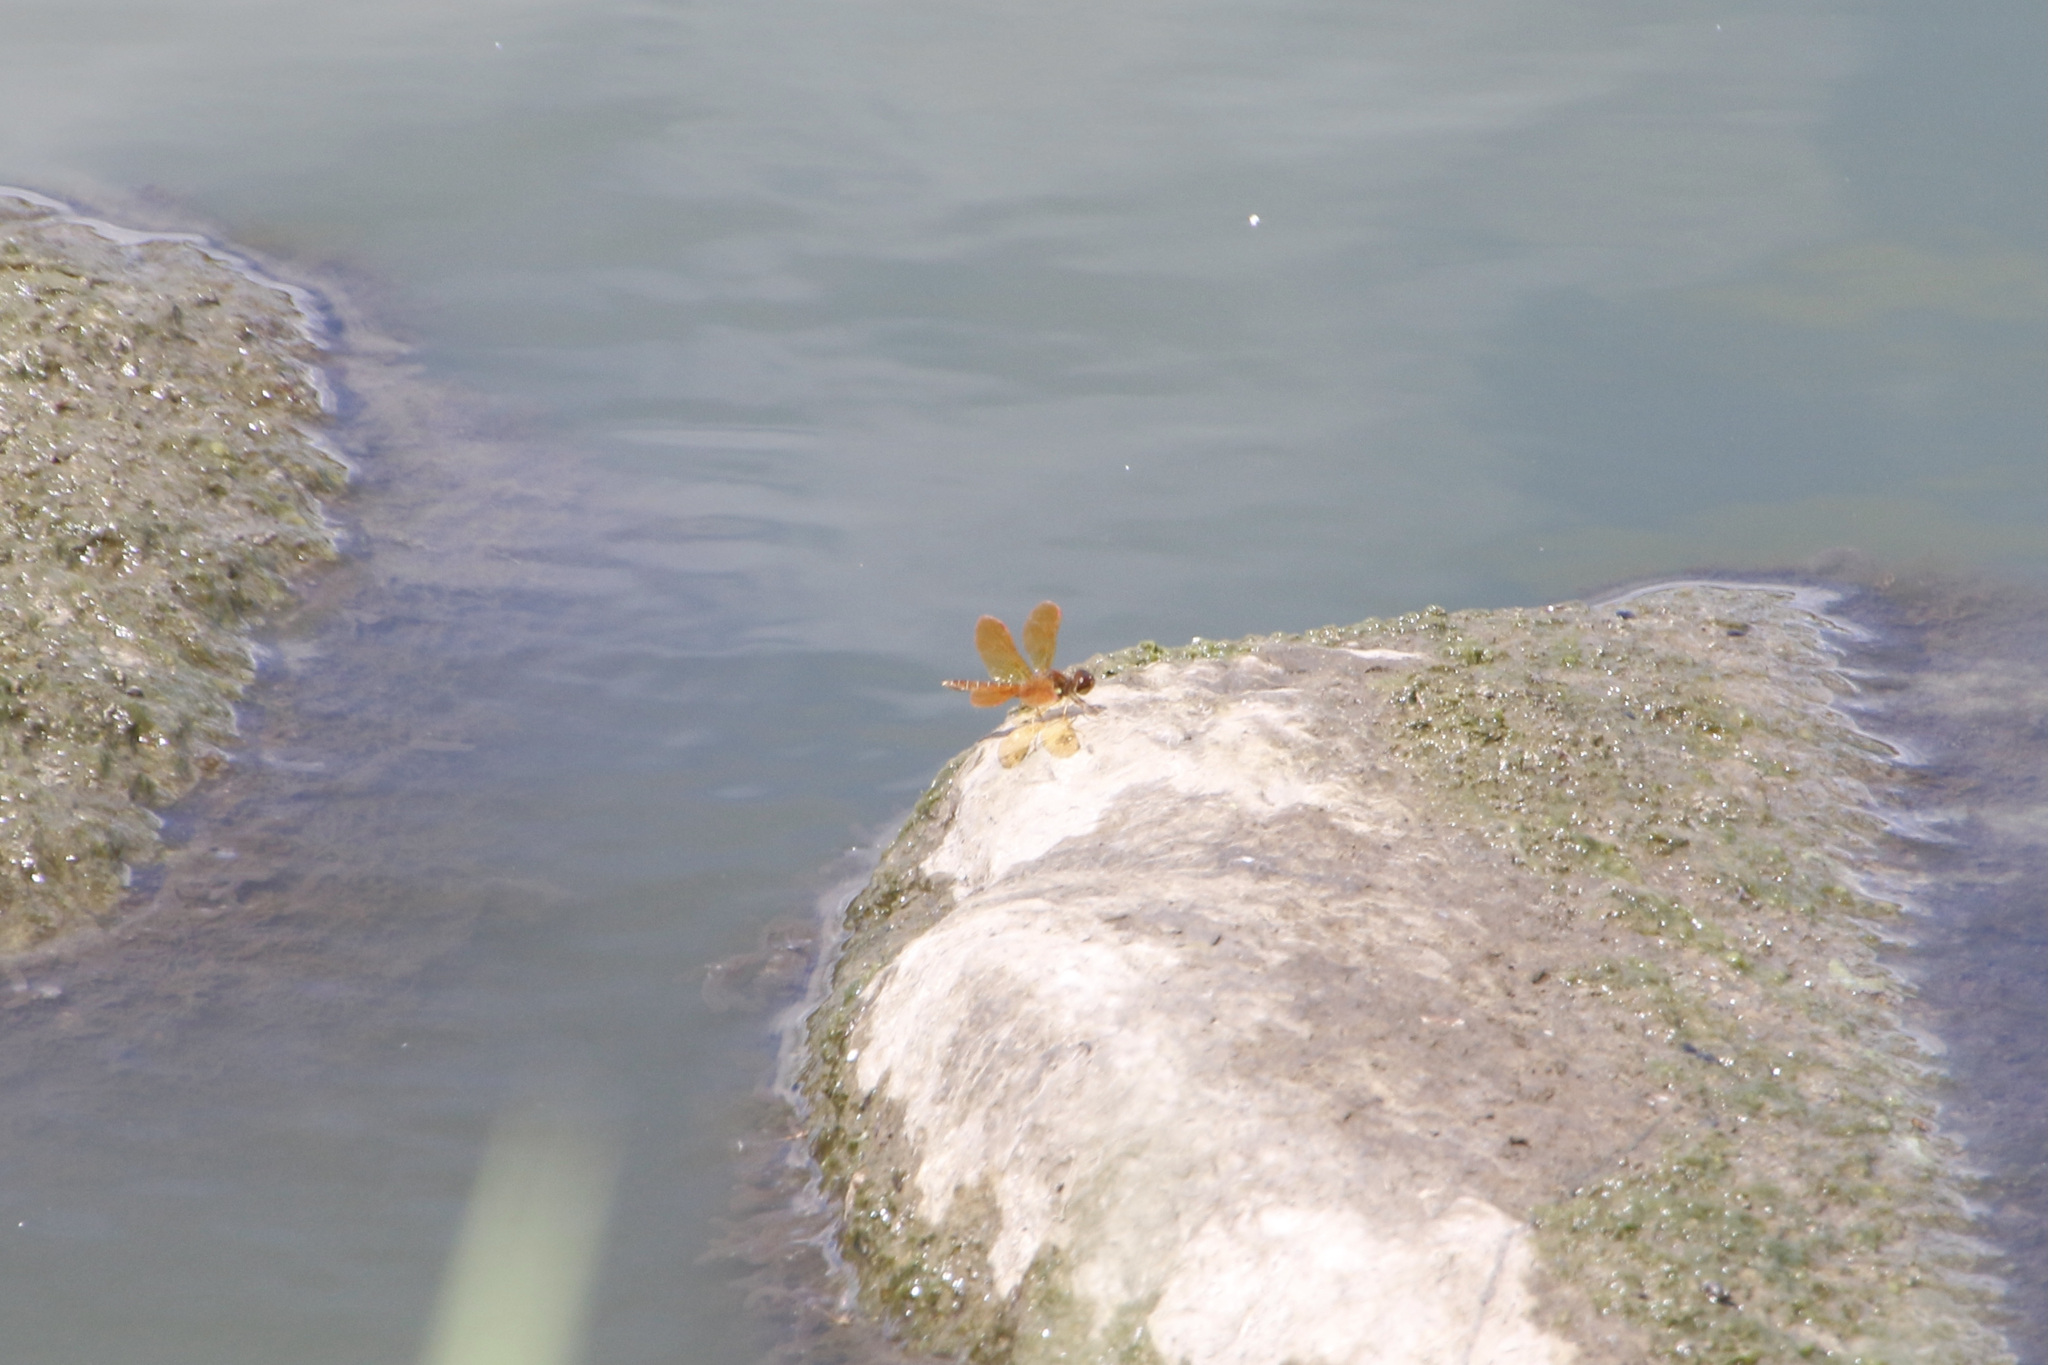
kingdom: Animalia
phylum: Arthropoda
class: Insecta
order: Odonata
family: Libellulidae
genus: Perithemis
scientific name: Perithemis tenera
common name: Eastern amberwing
